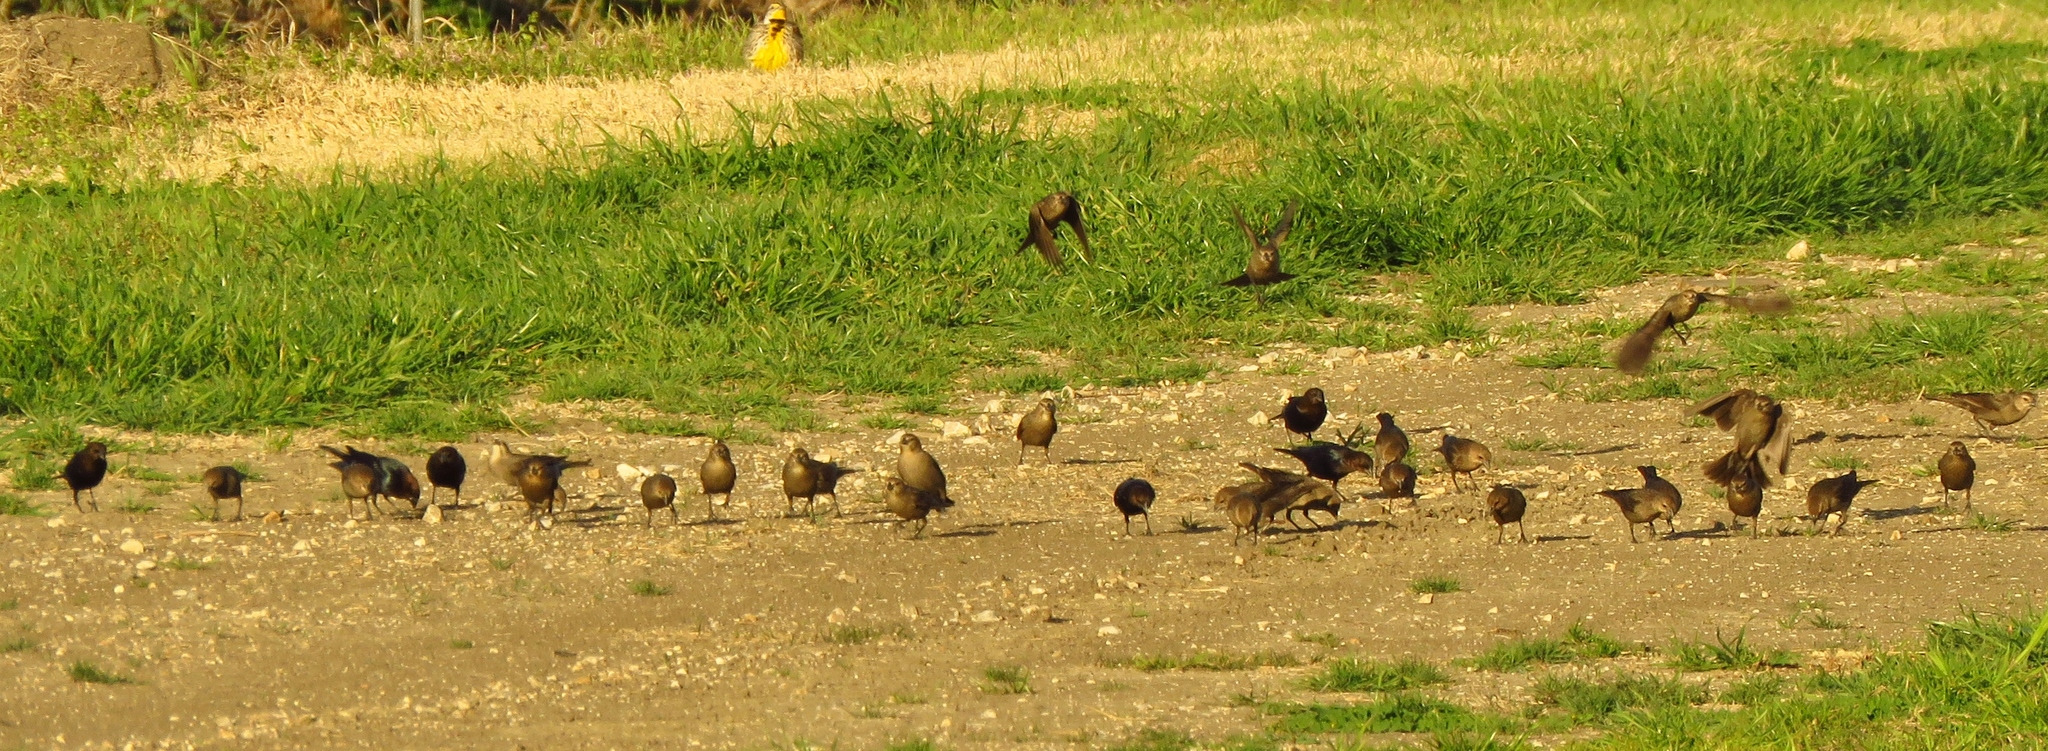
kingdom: Animalia
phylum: Chordata
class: Aves
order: Passeriformes
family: Icteridae
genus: Molothrus
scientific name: Molothrus ater
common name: Brown-headed cowbird
